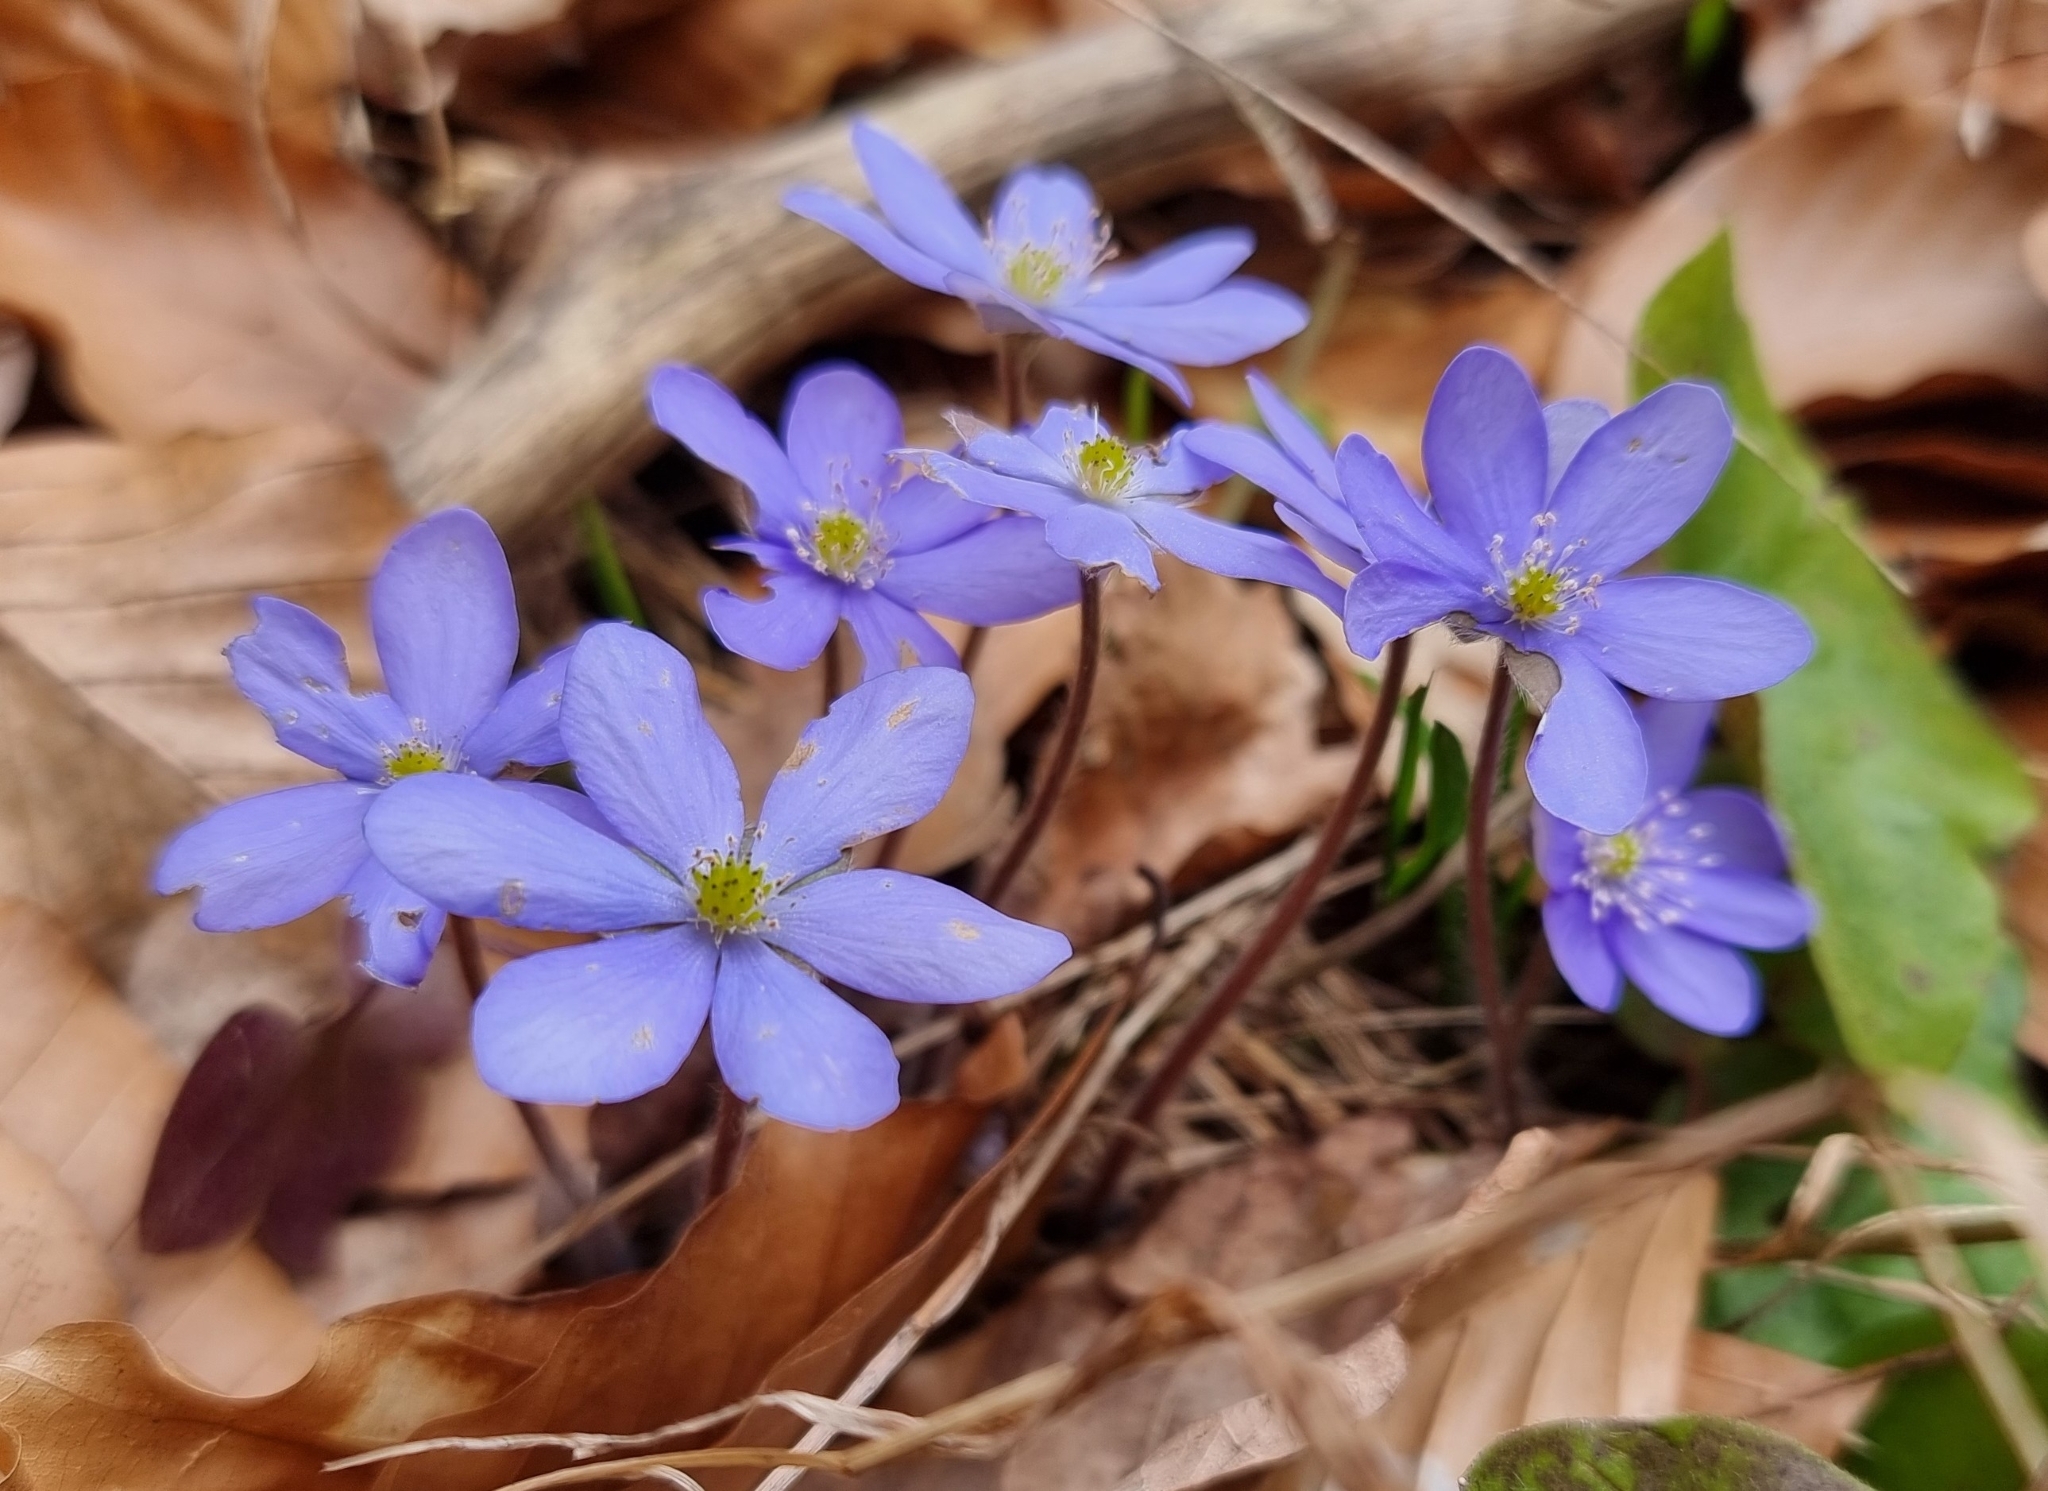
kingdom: Plantae
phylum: Tracheophyta
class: Magnoliopsida
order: Ranunculales
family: Ranunculaceae
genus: Hepatica
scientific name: Hepatica nobilis
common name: Liverleaf
